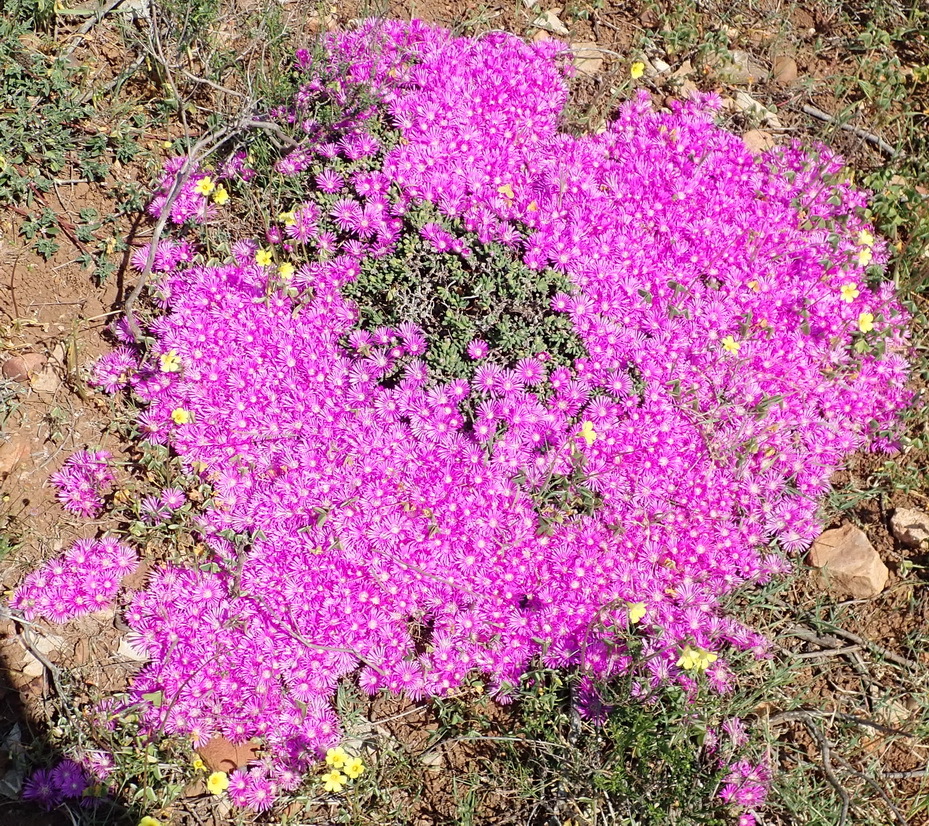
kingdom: Plantae
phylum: Tracheophyta
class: Magnoliopsida
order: Caryophyllales
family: Aizoaceae
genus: Drosanthemum
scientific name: Drosanthemum calcareum
